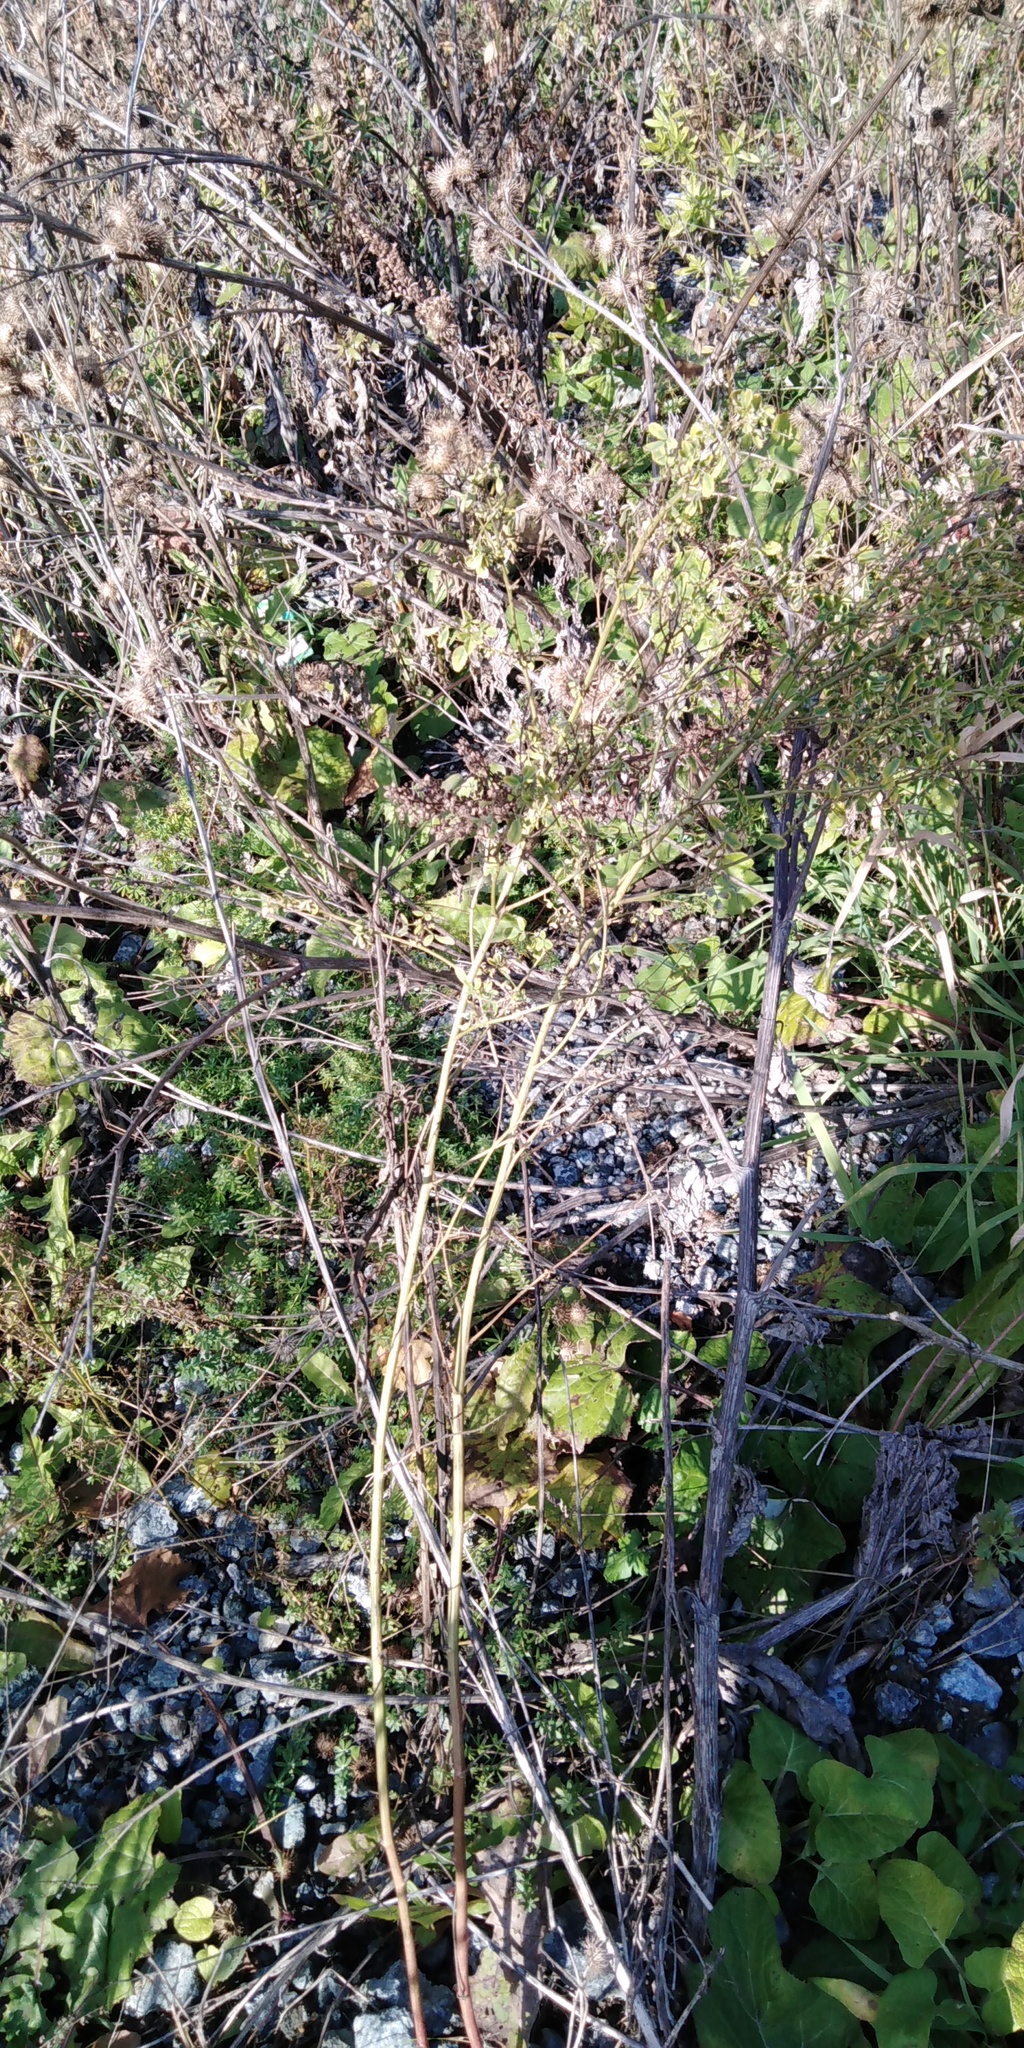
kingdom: Plantae
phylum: Tracheophyta
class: Magnoliopsida
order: Asterales
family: Asteraceae
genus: Tussilago
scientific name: Tussilago farfara
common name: Coltsfoot
